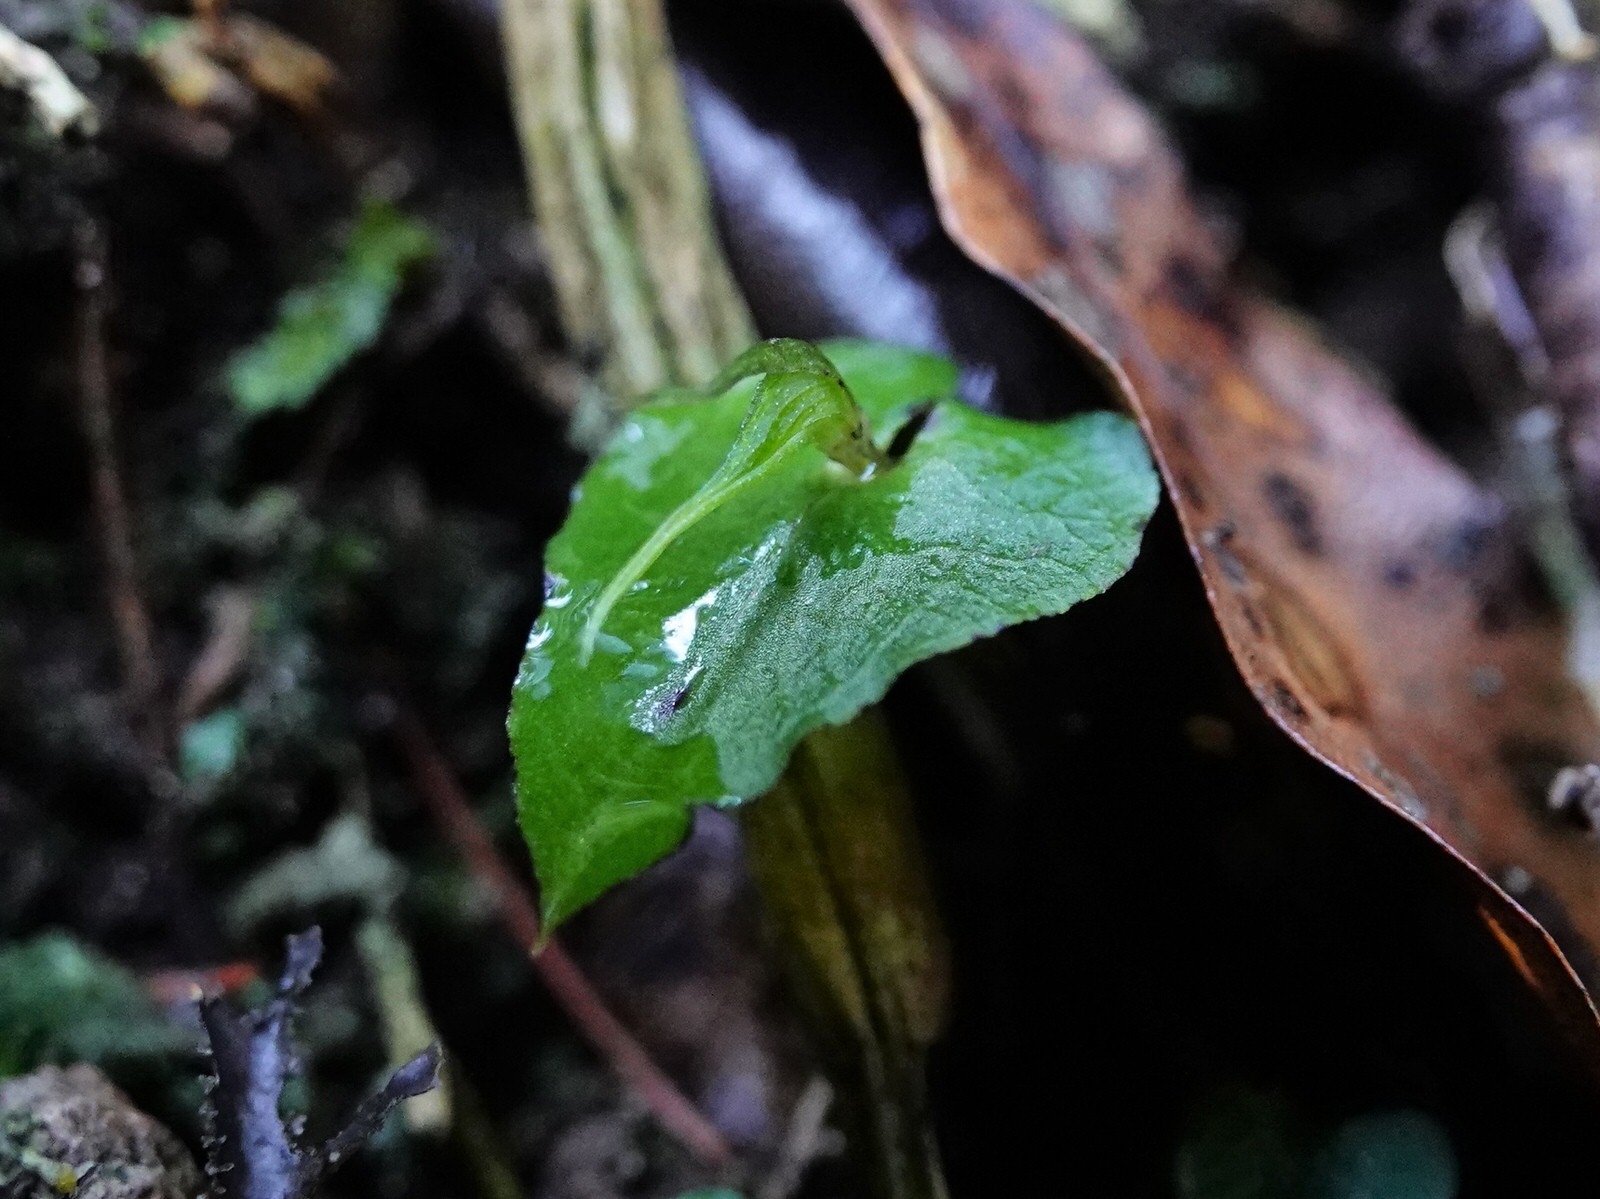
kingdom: Plantae
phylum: Tracheophyta
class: Liliopsida
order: Asparagales
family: Orchidaceae
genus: Corybas
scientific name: Corybas acuminatus
